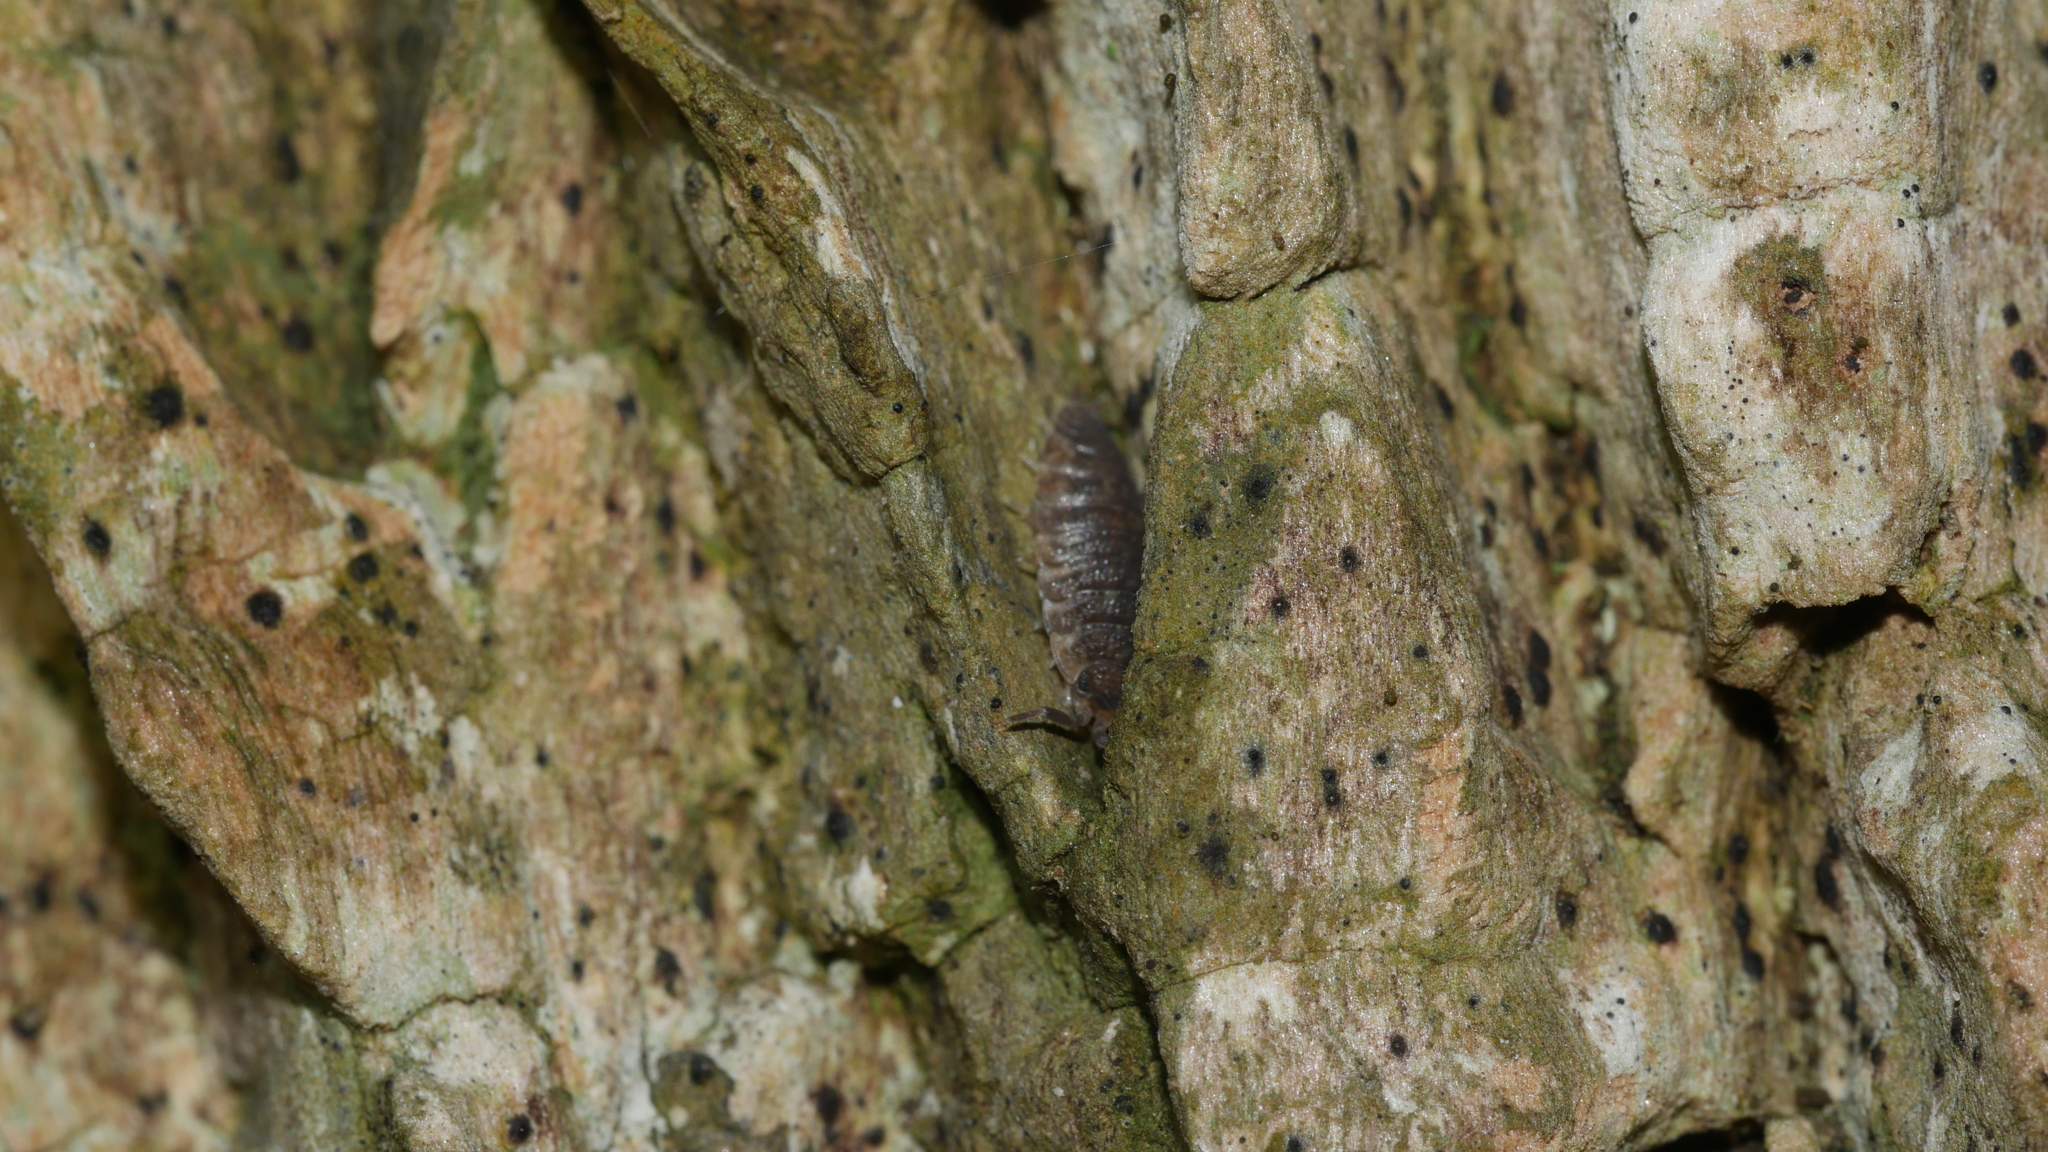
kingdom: Animalia
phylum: Arthropoda
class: Malacostraca
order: Isopoda
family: Porcellionidae
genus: Porcellio
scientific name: Porcellio scaber
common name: Common rough woodlouse
